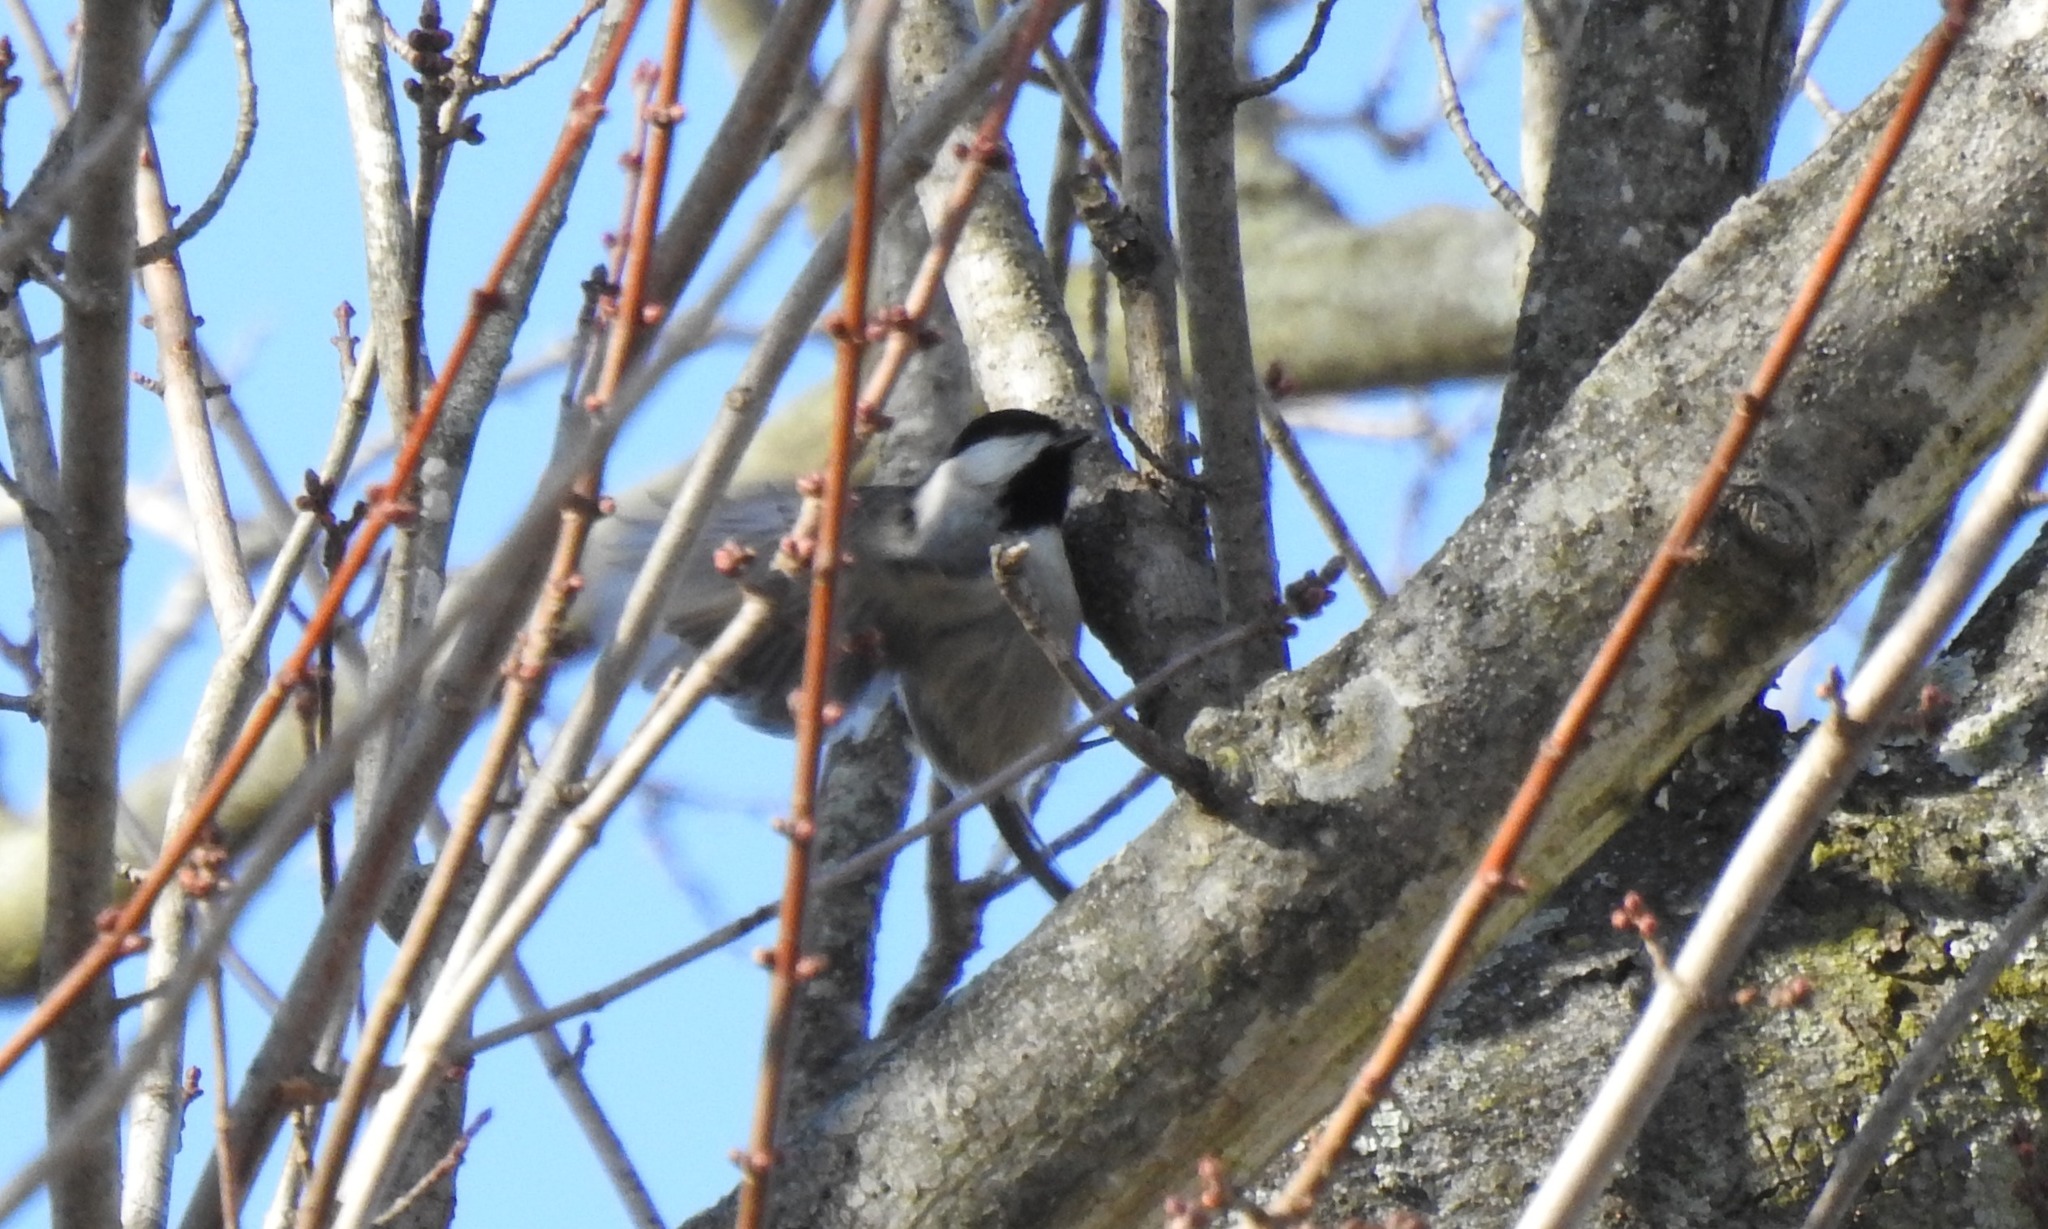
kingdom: Animalia
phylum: Chordata
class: Aves
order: Passeriformes
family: Paridae
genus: Poecile
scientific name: Poecile carolinensis
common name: Carolina chickadee
